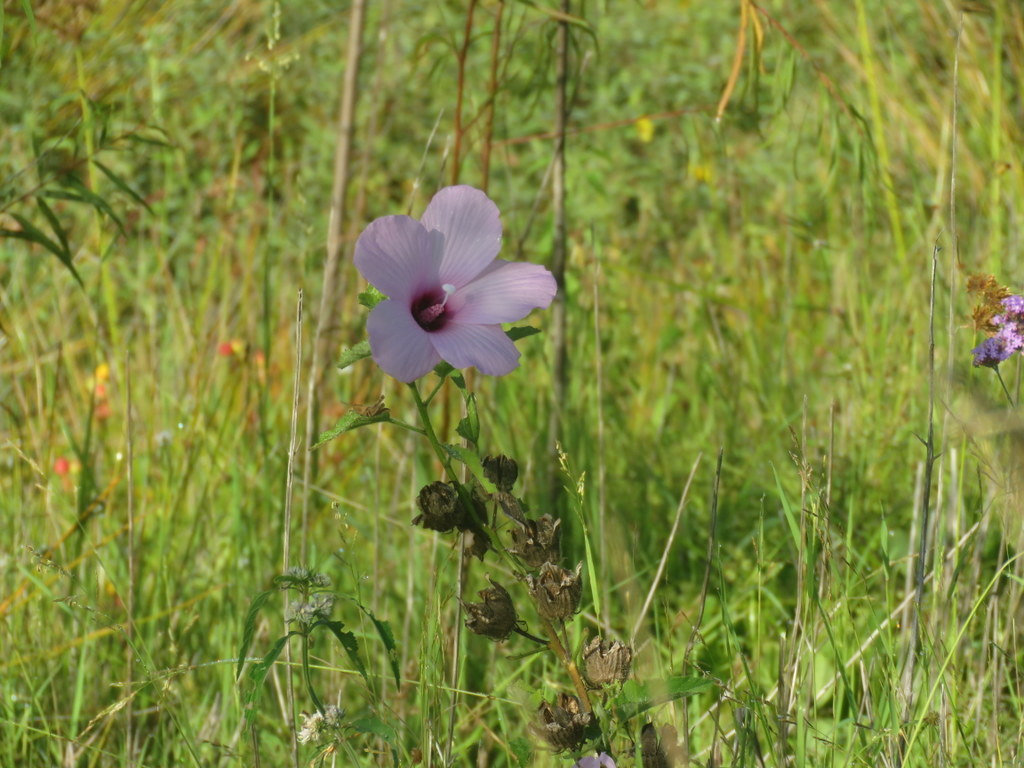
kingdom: Plantae
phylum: Tracheophyta
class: Magnoliopsida
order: Malvales
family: Malvaceae
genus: Hibiscus
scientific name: Hibiscus striatus
